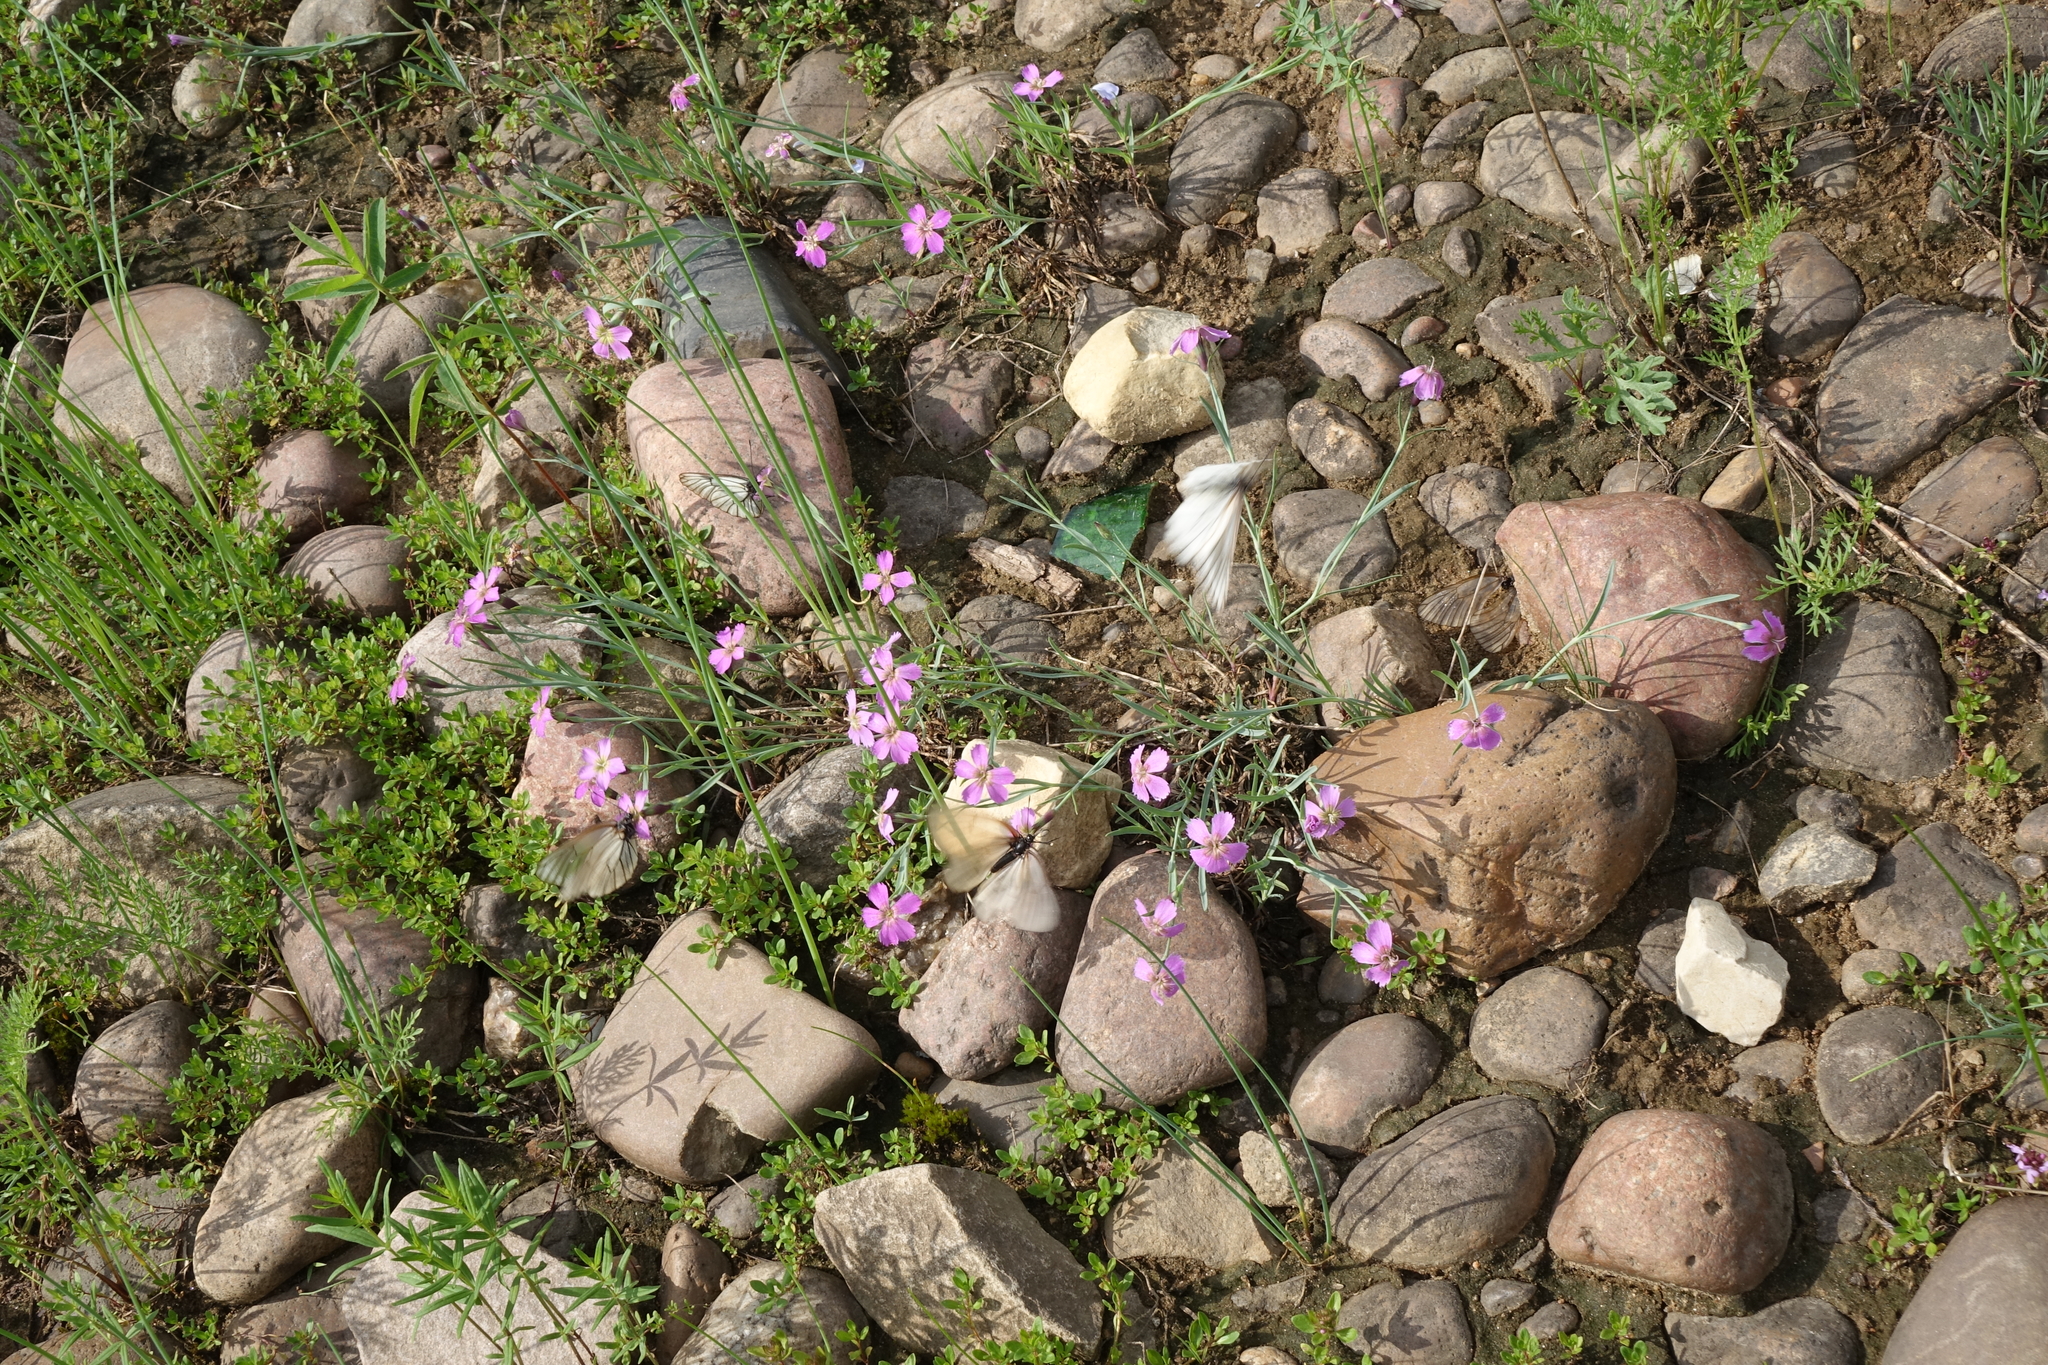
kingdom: Plantae
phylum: Tracheophyta
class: Magnoliopsida
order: Caryophyllales
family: Caryophyllaceae
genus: Dianthus
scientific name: Dianthus repens
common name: Northern pink
